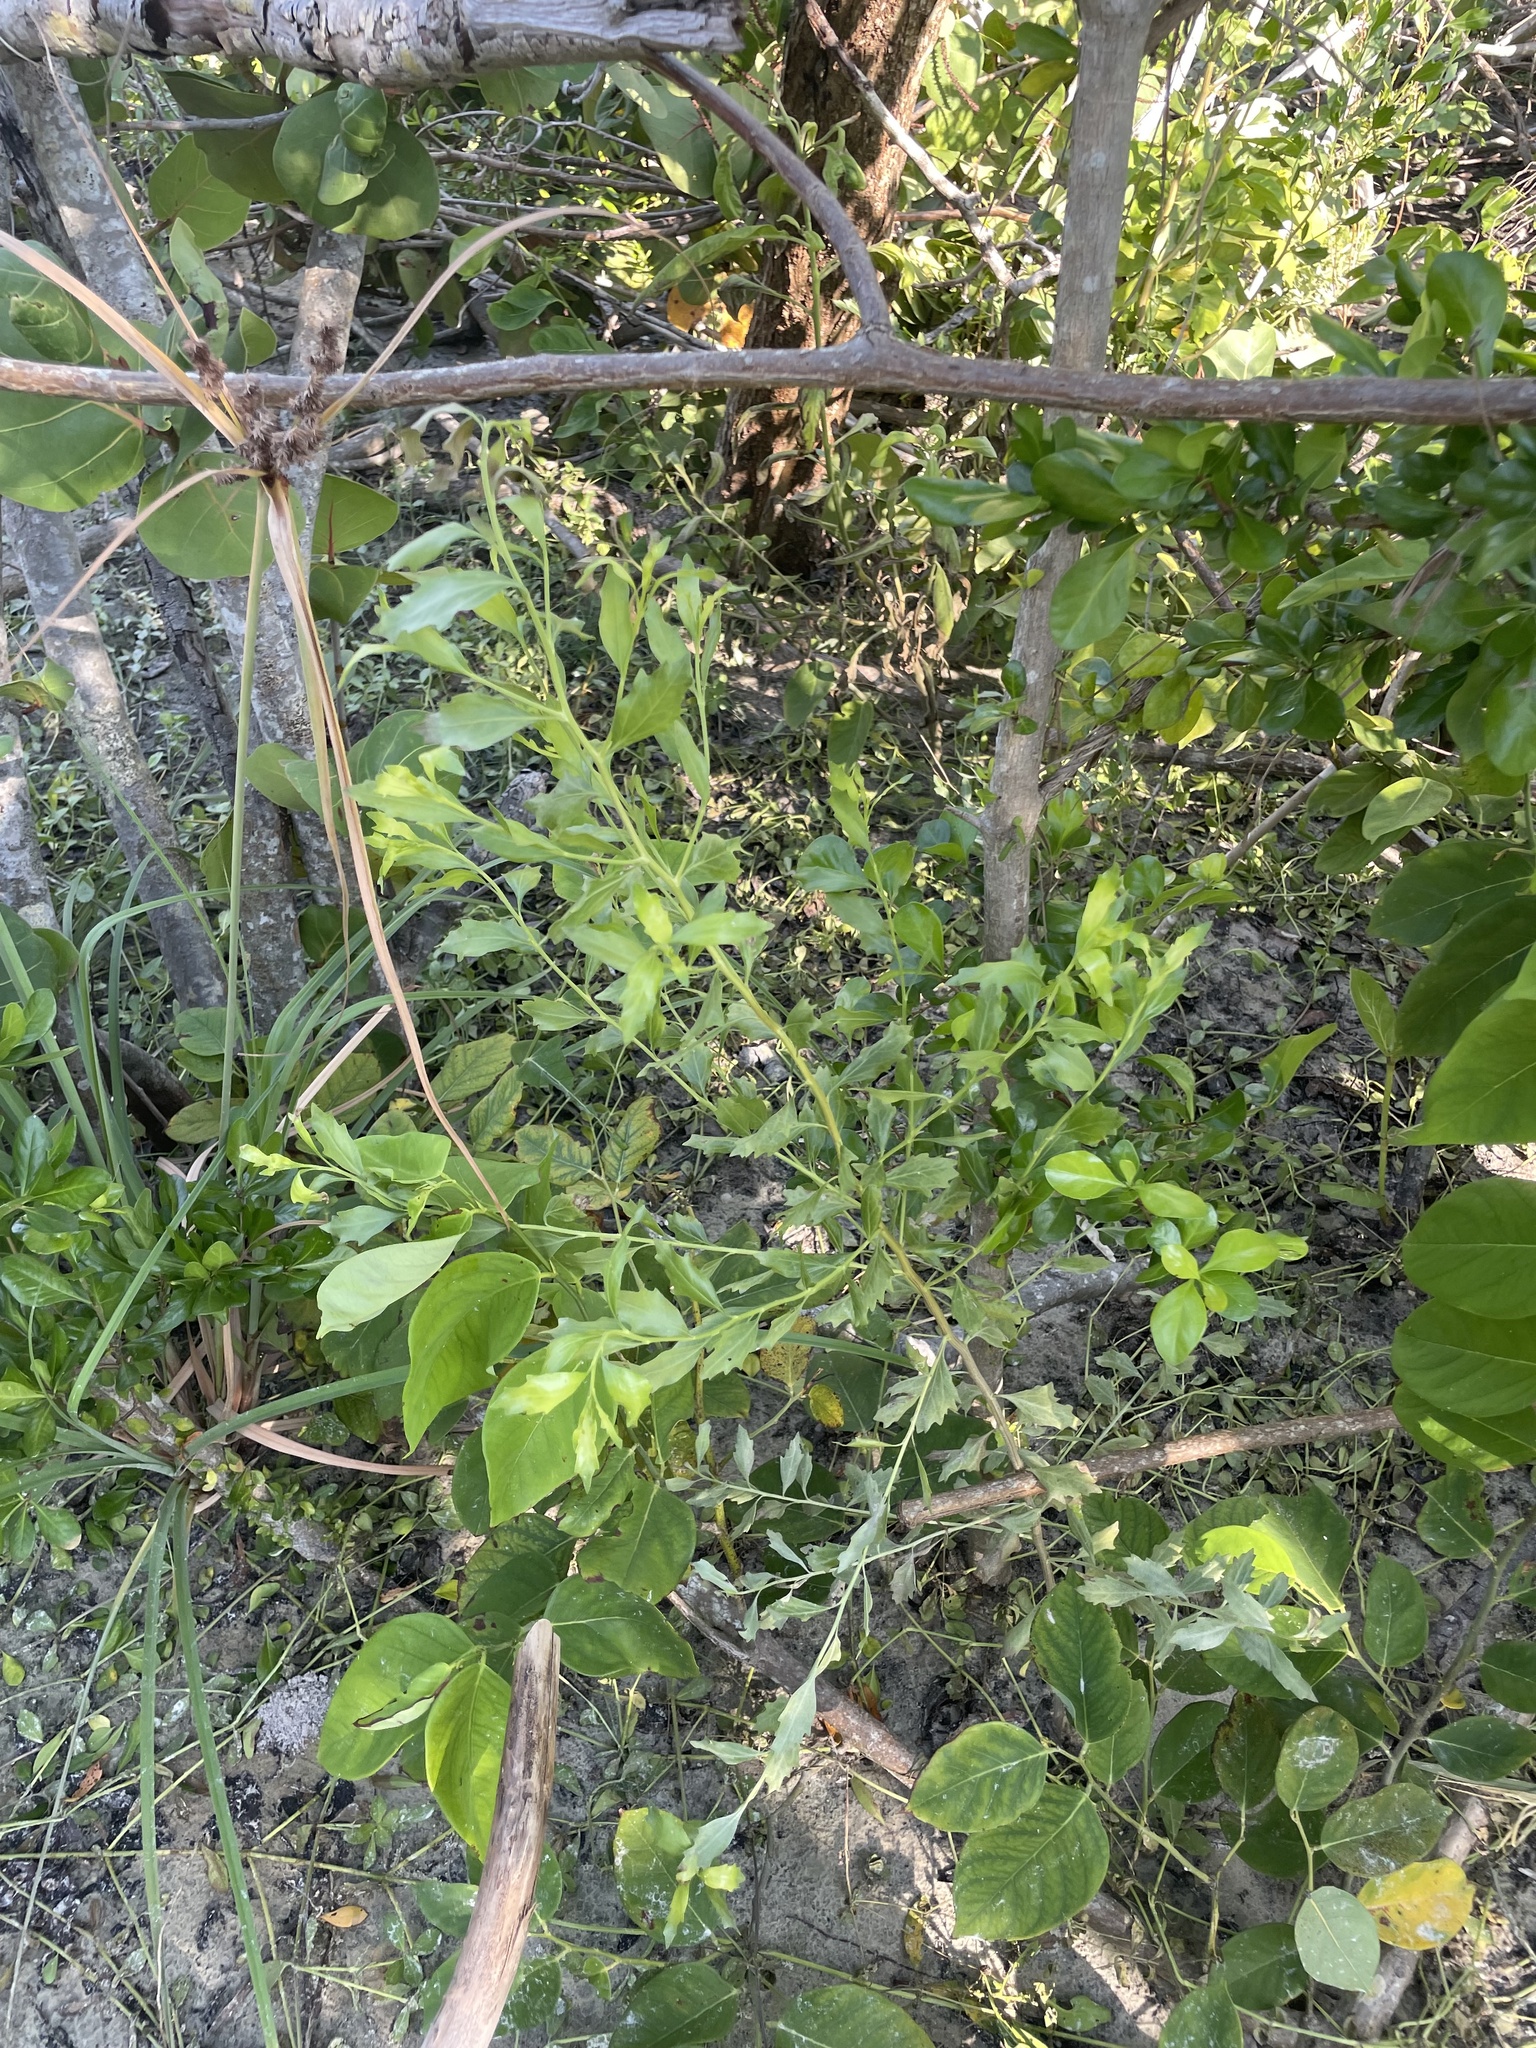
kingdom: Plantae
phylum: Tracheophyta
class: Magnoliopsida
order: Asterales
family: Asteraceae
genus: Baccharis
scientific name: Baccharis halimifolia
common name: Eastern baccharis
